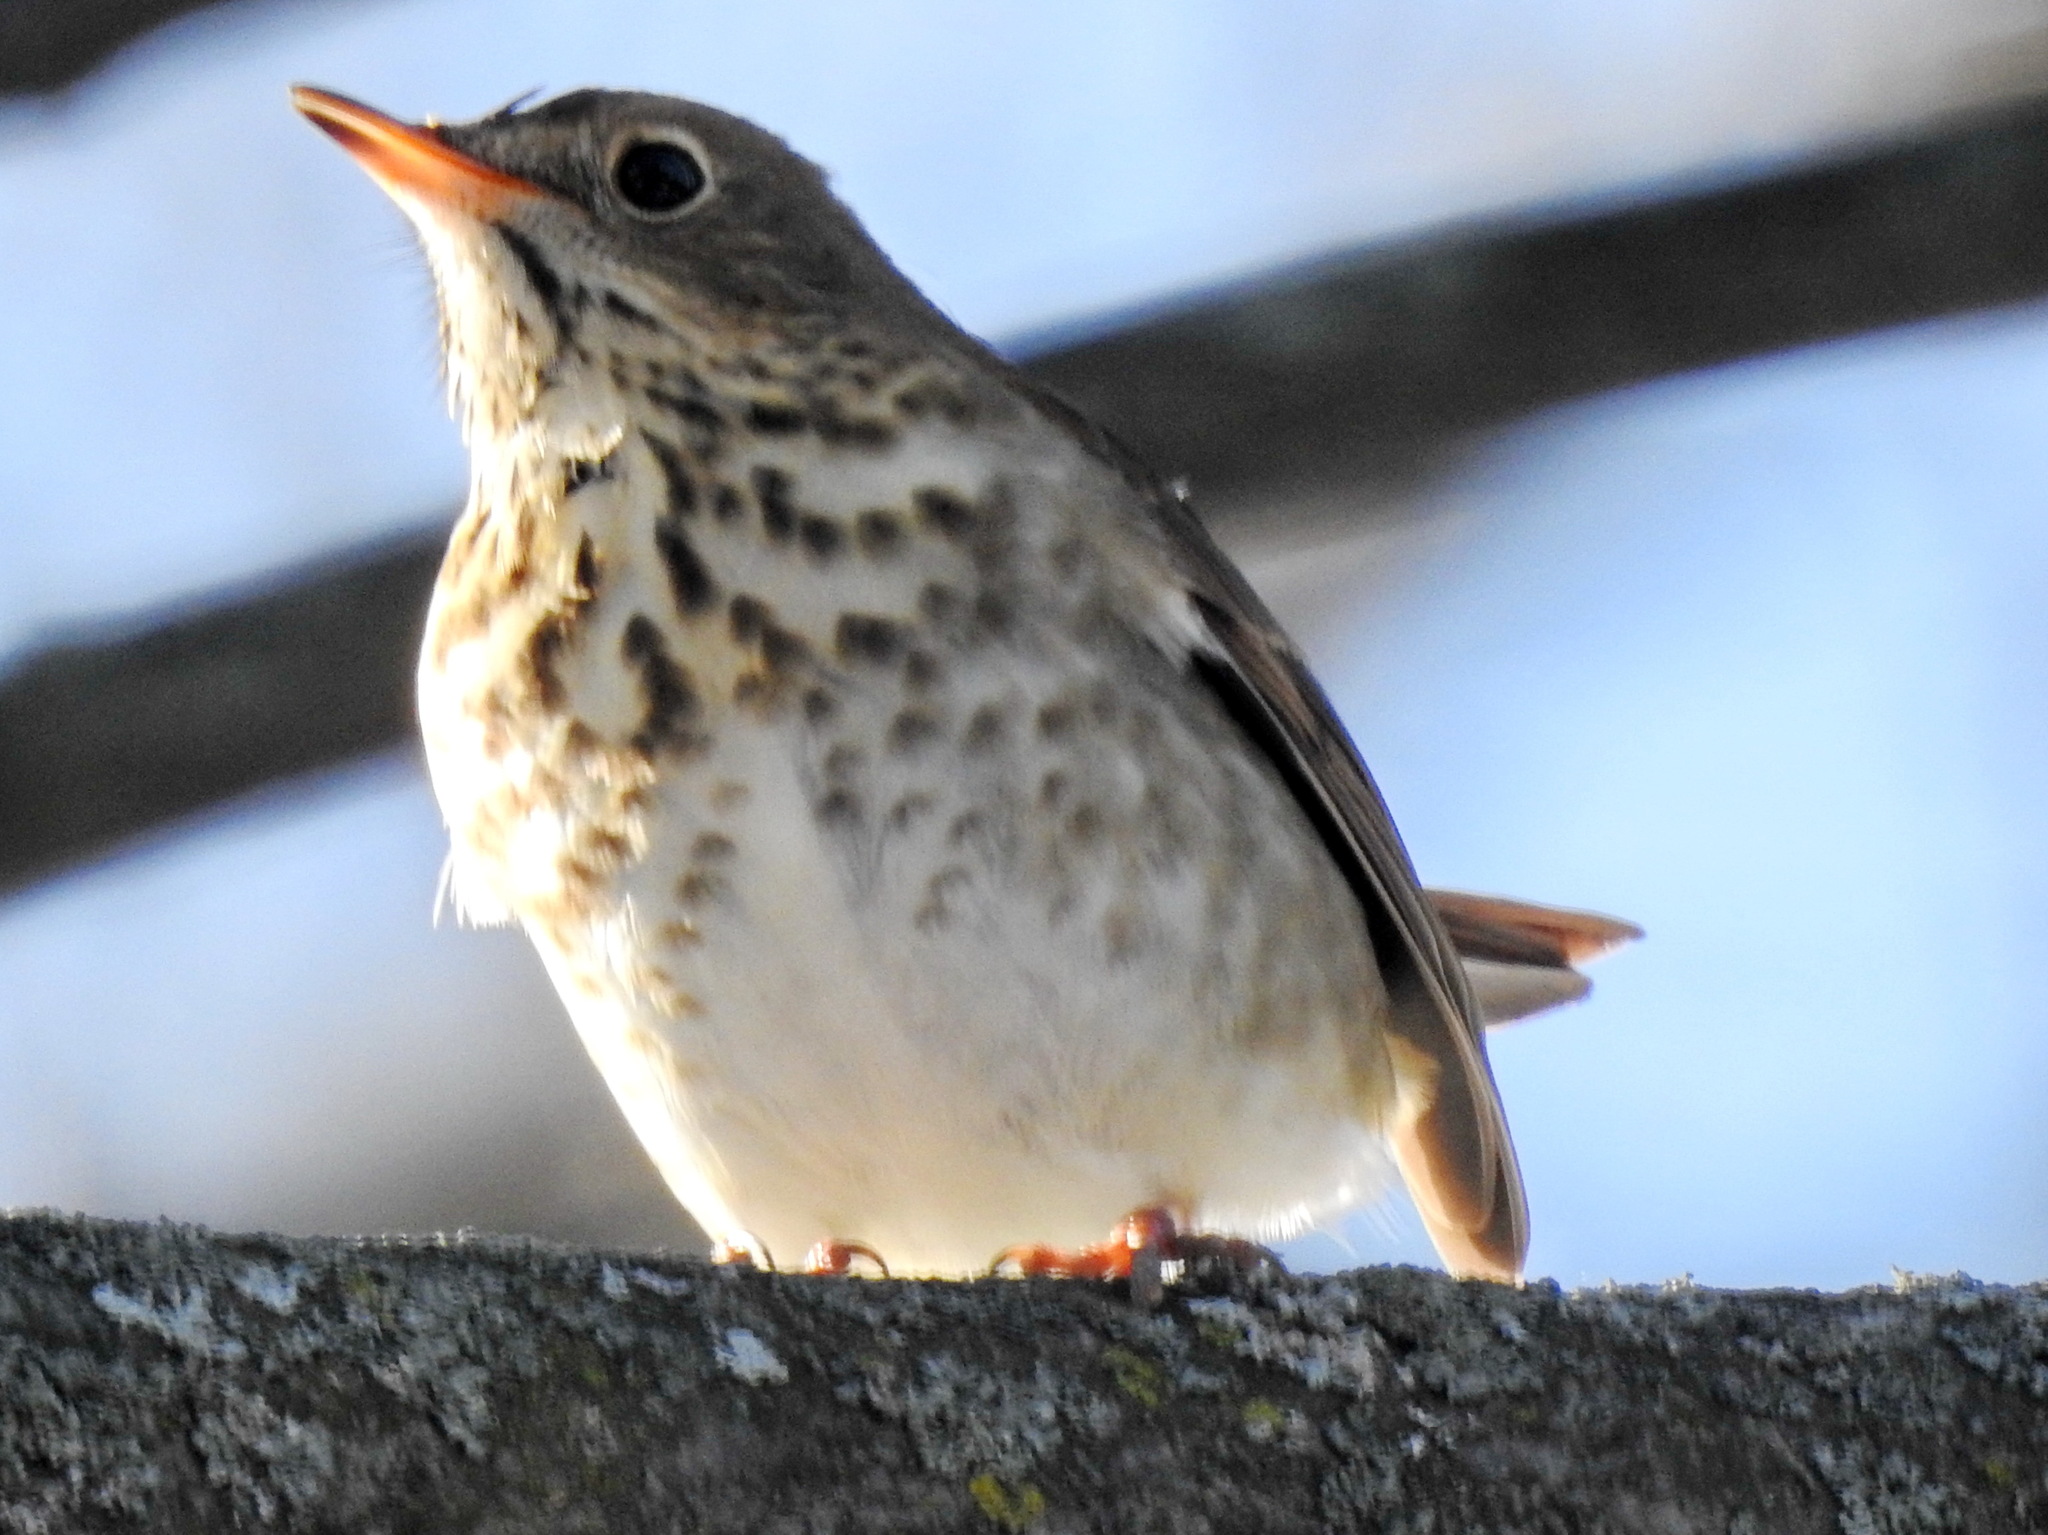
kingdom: Animalia
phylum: Chordata
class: Aves
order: Passeriformes
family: Turdidae
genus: Catharus
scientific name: Catharus guttatus
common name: Hermit thrush
